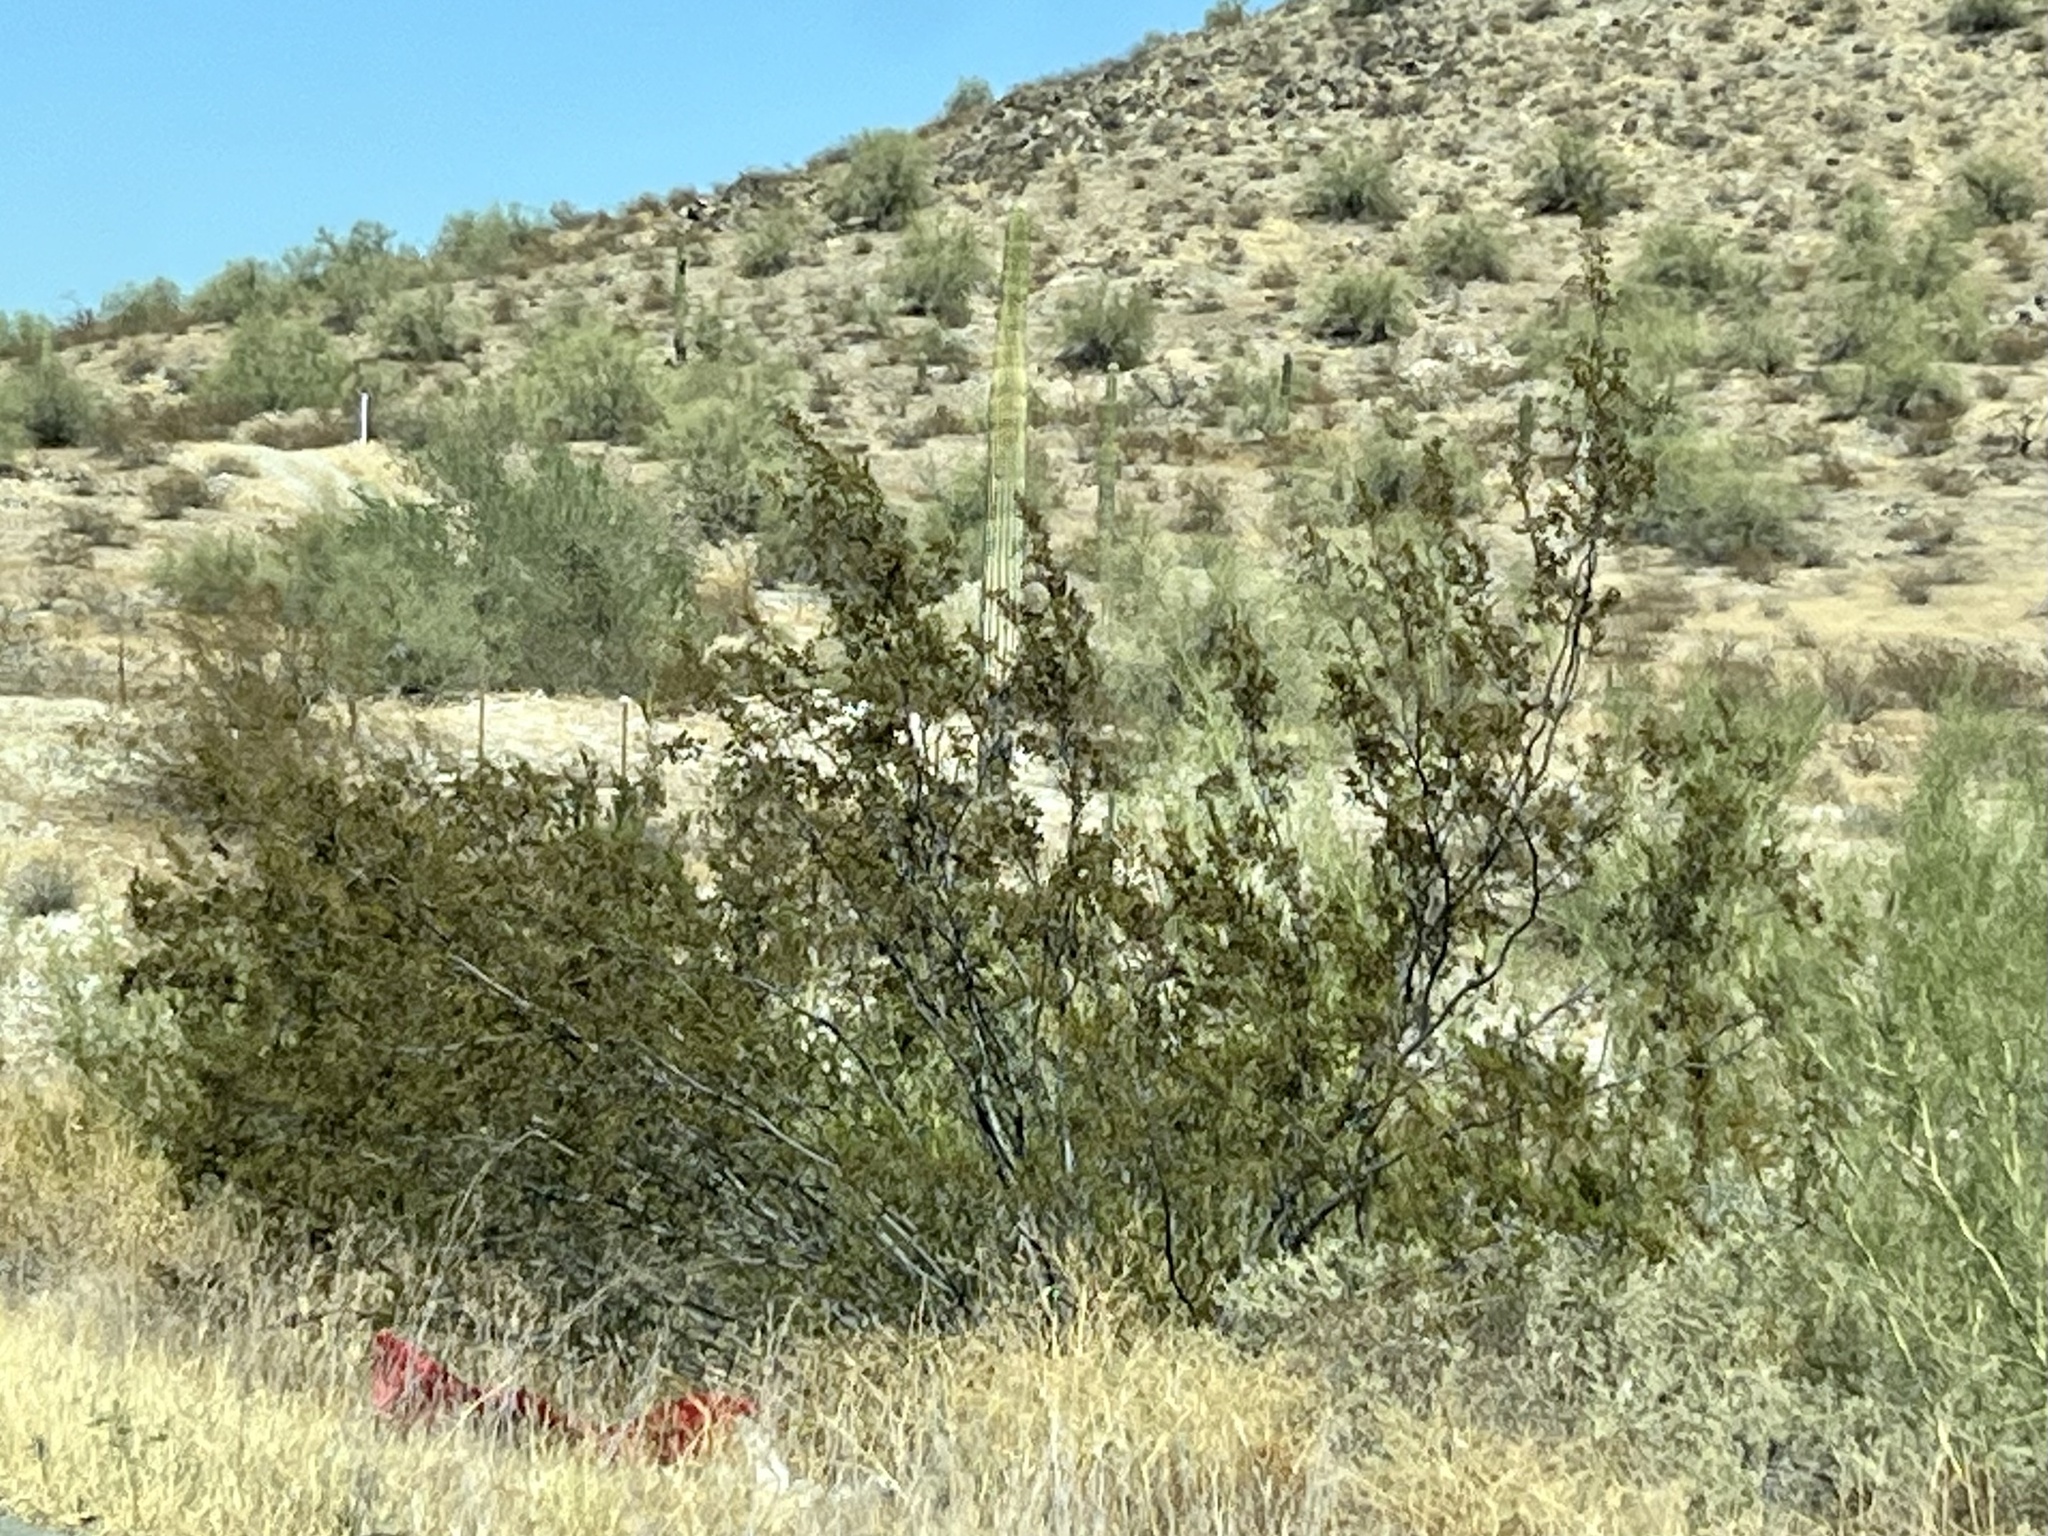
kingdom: Plantae
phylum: Tracheophyta
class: Magnoliopsida
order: Zygophyllales
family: Zygophyllaceae
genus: Larrea
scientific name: Larrea tridentata
